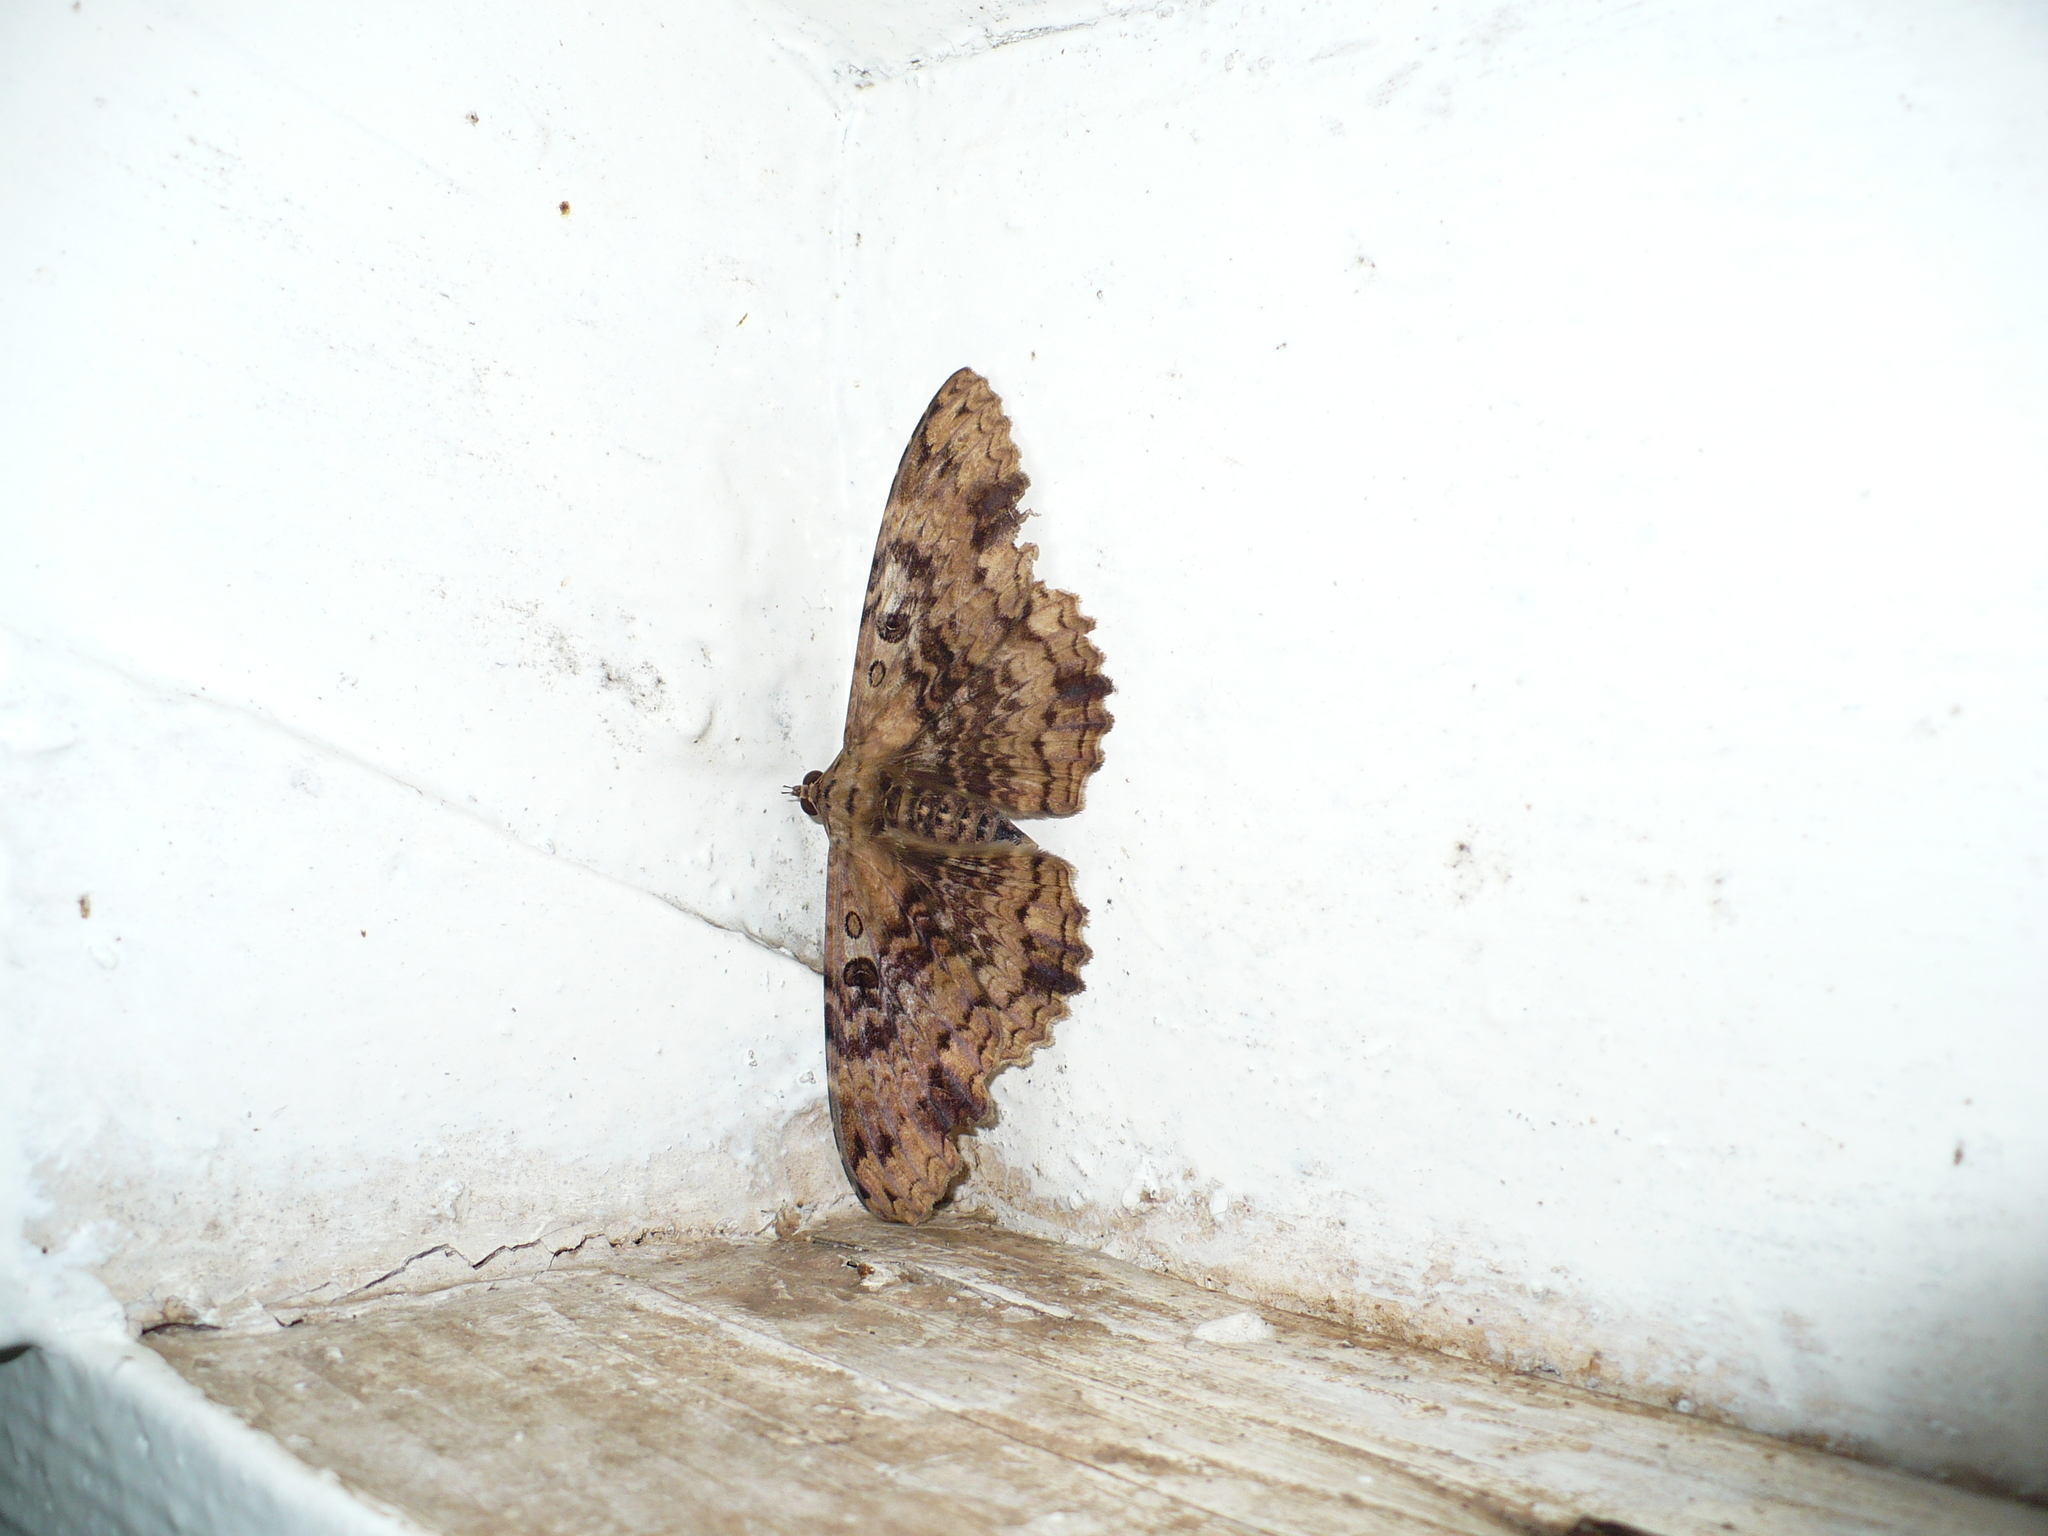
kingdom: Animalia
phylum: Arthropoda
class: Insecta
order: Lepidoptera
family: Erebidae
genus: Feigeria
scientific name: Feigeria scops
